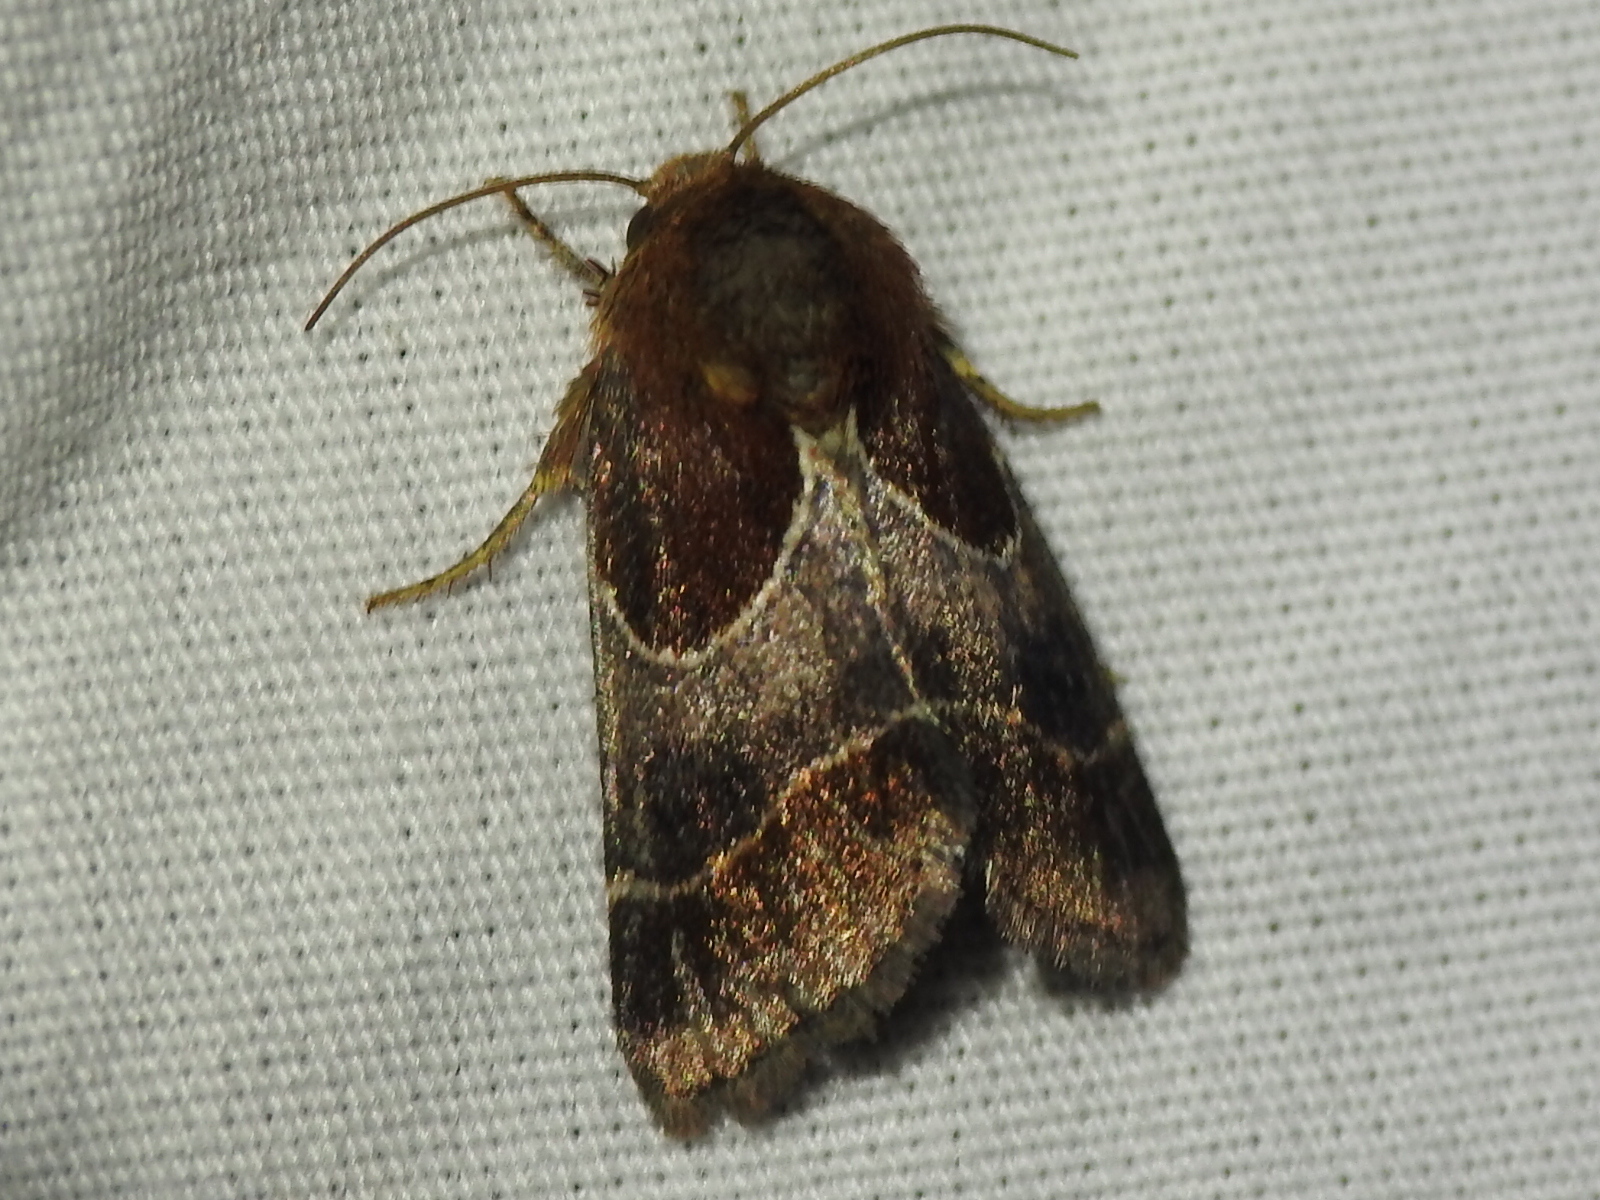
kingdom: Animalia
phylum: Arthropoda
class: Insecta
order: Lepidoptera
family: Noctuidae
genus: Schinia
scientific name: Schinia arcigera
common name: Arcigera flower moth
